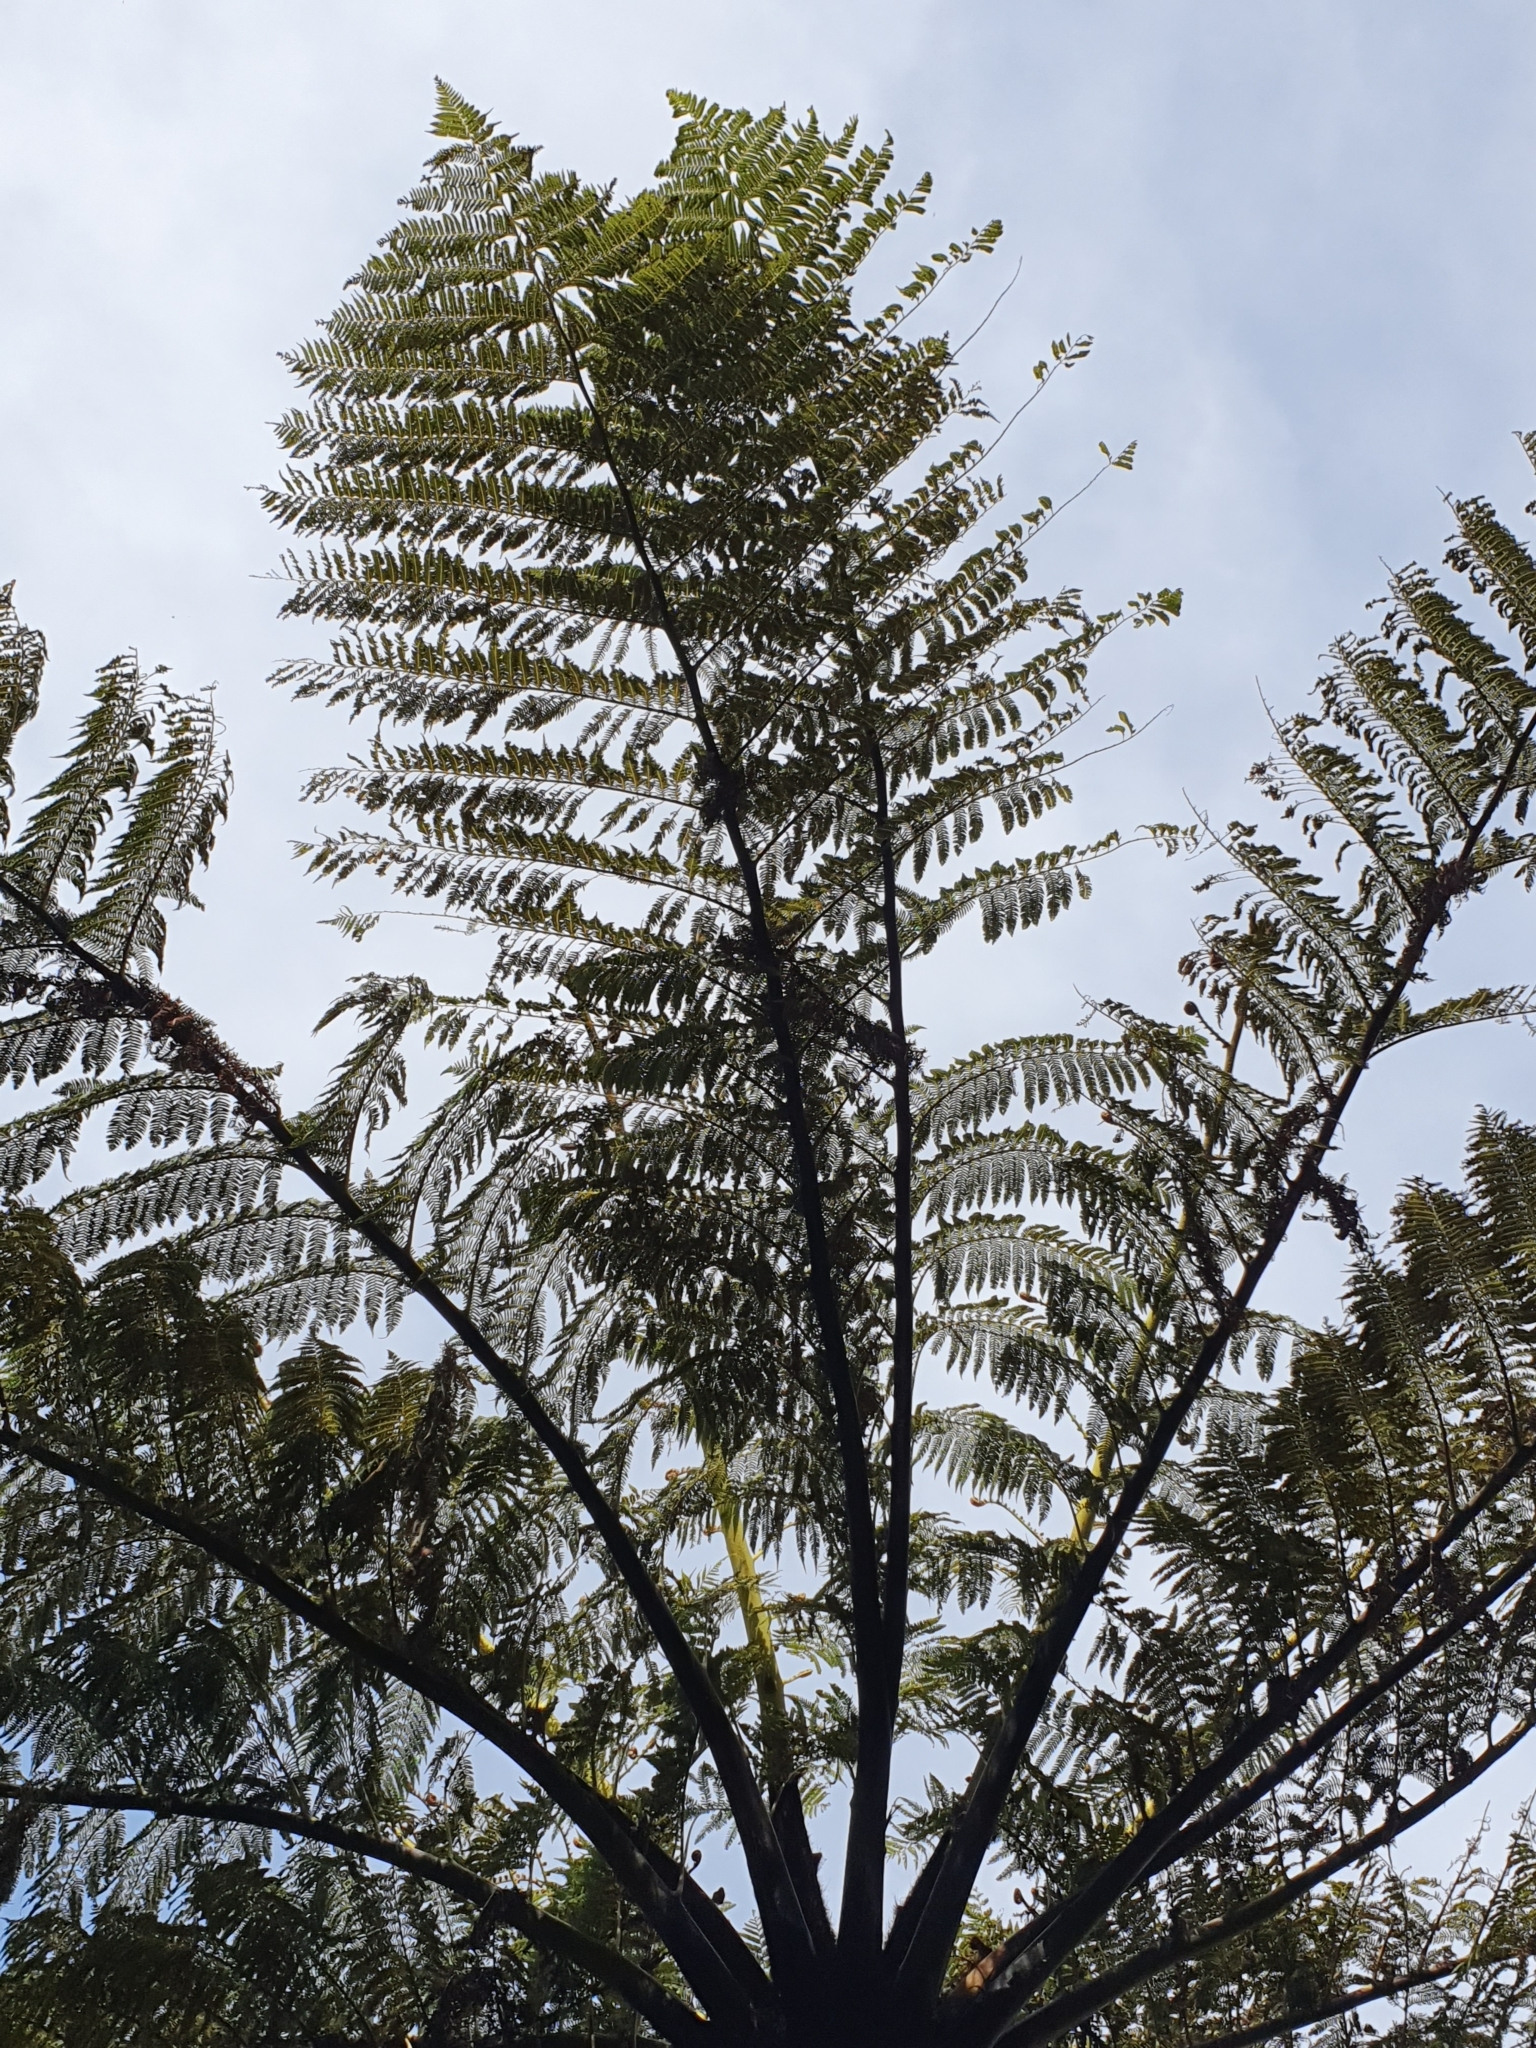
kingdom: Plantae
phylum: Tracheophyta
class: Polypodiopsida
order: Cyatheales
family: Cyatheaceae
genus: Sphaeropteris
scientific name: Sphaeropteris medullaris
